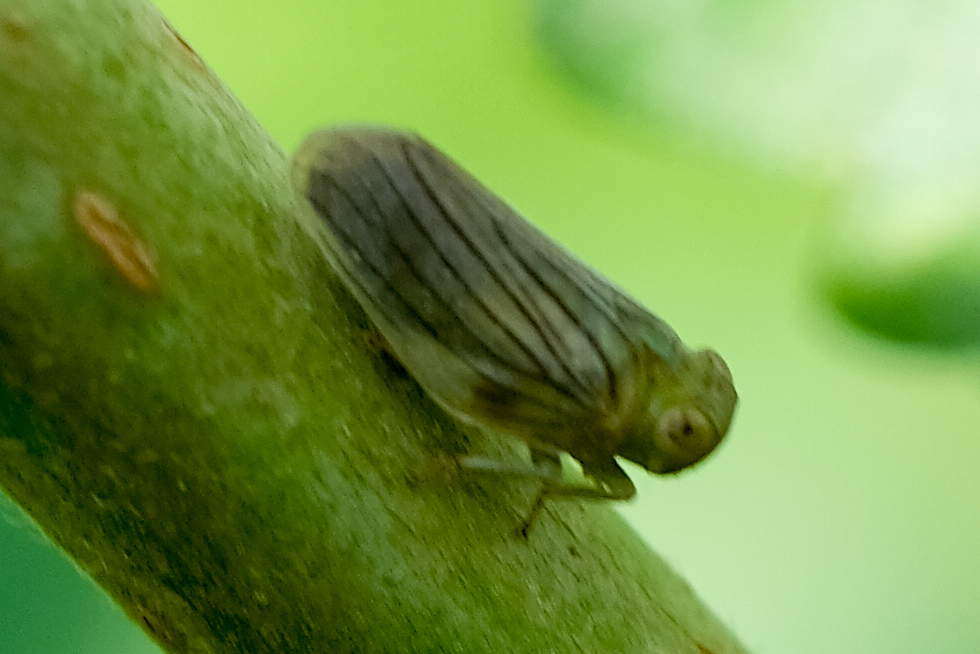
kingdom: Animalia
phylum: Arthropoda
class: Insecta
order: Hemiptera
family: Issidae
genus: Aplos
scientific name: Aplos simplex
